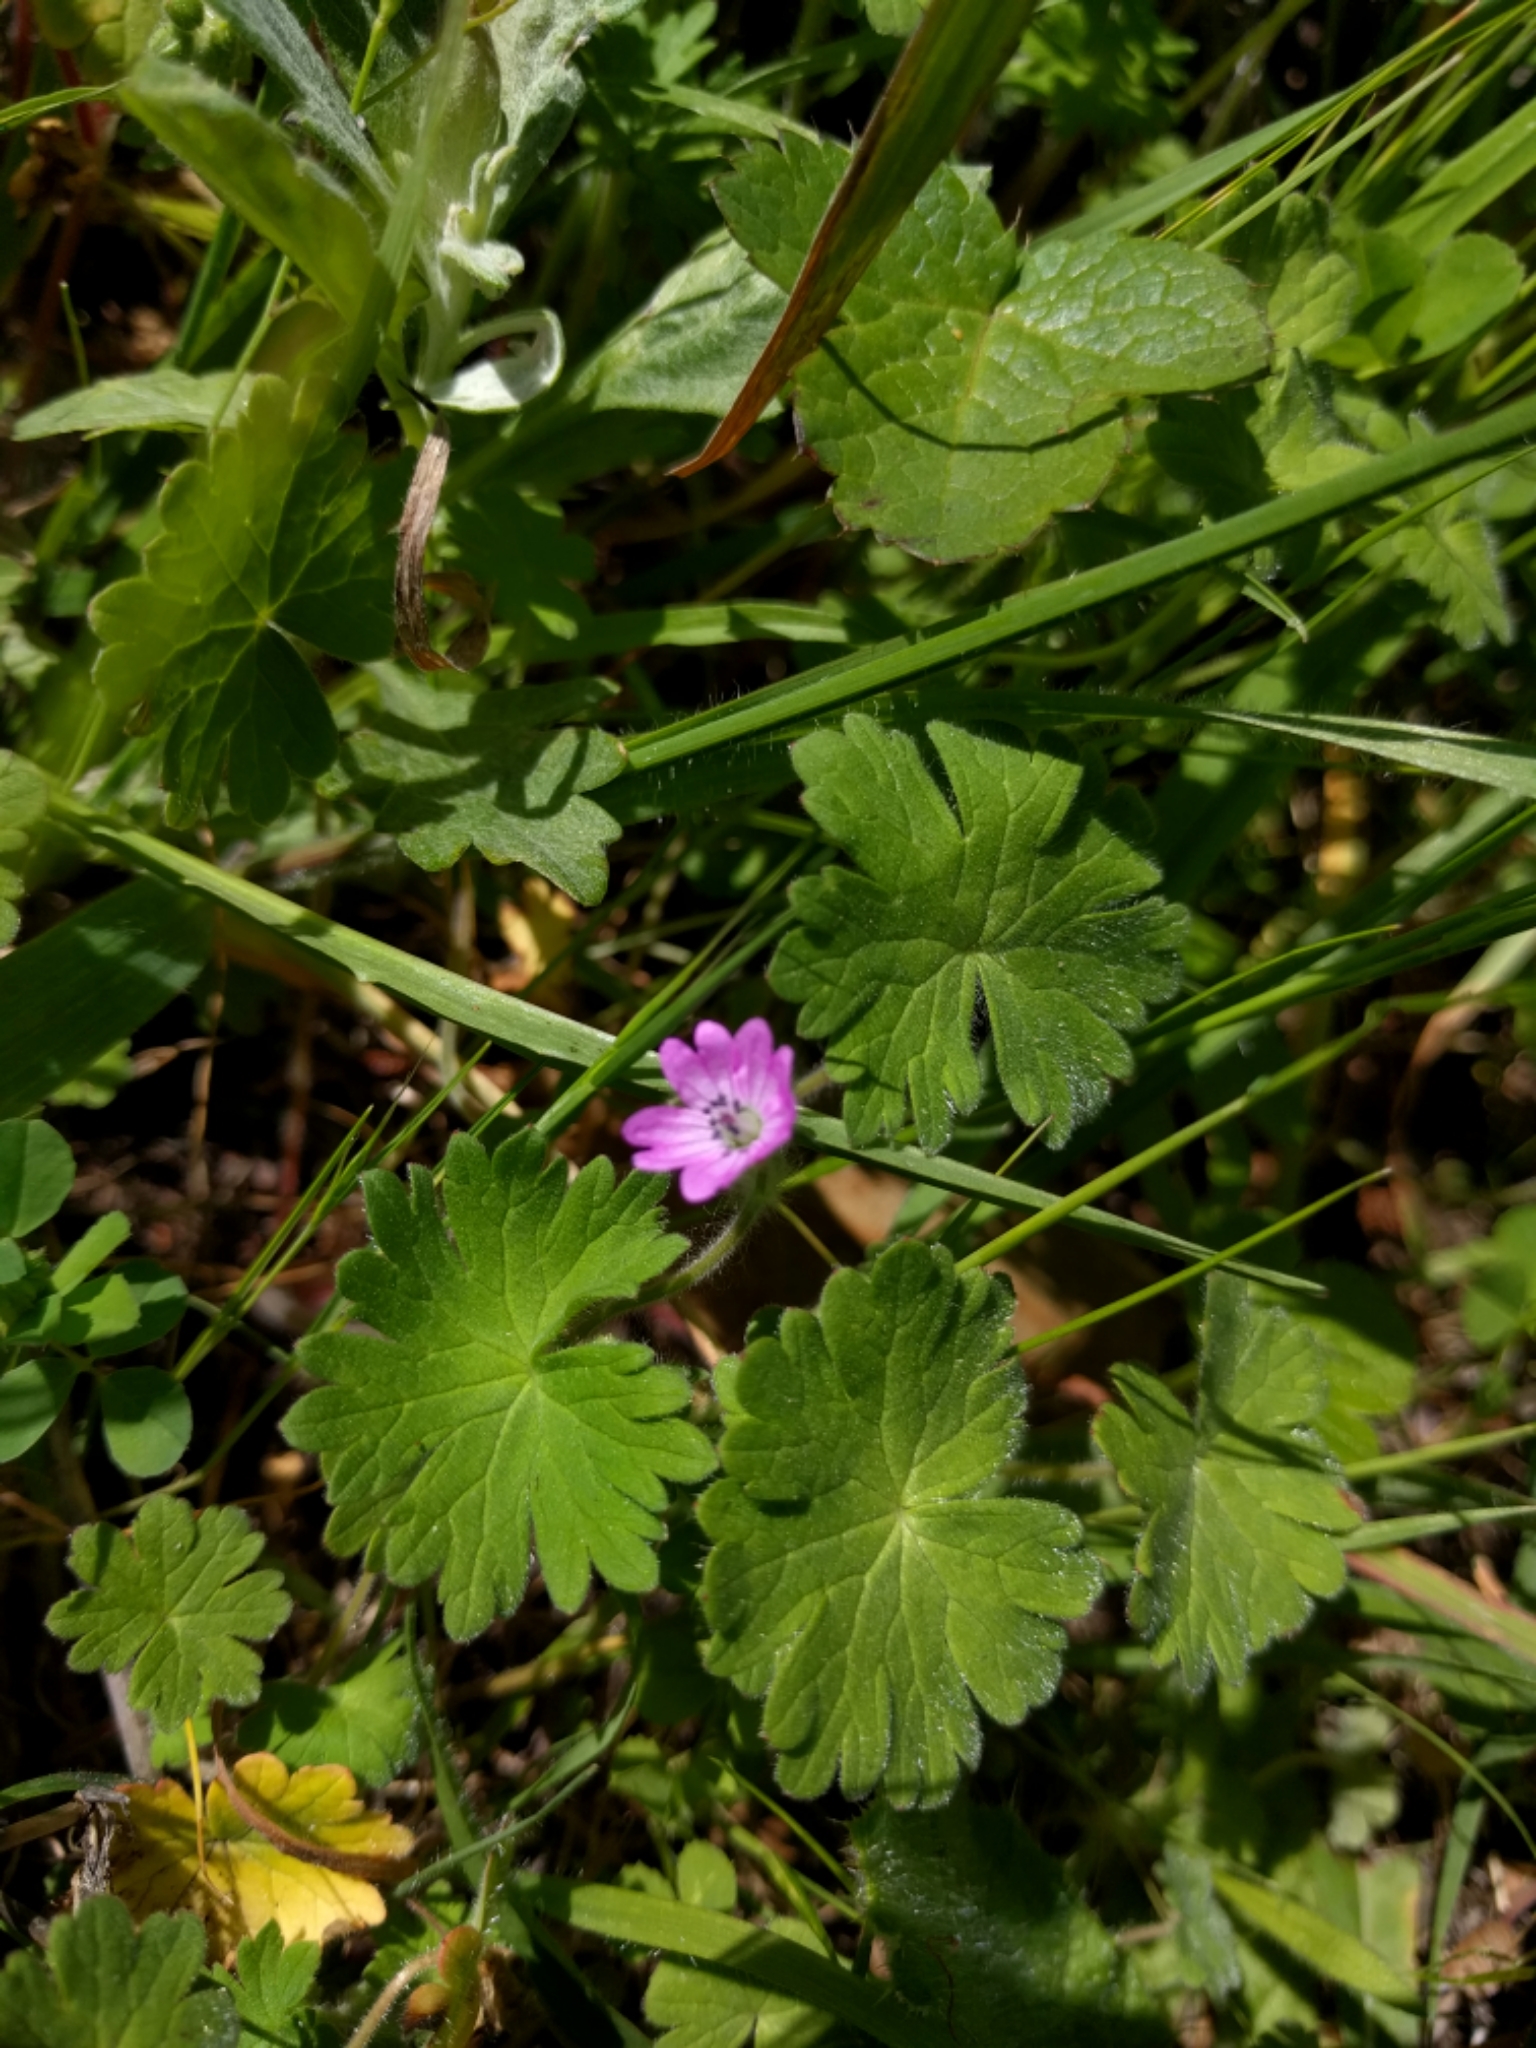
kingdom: Plantae
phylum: Tracheophyta
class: Magnoliopsida
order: Geraniales
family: Geraniaceae
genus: Geranium
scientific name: Geranium molle
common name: Dove's-foot crane's-bill
